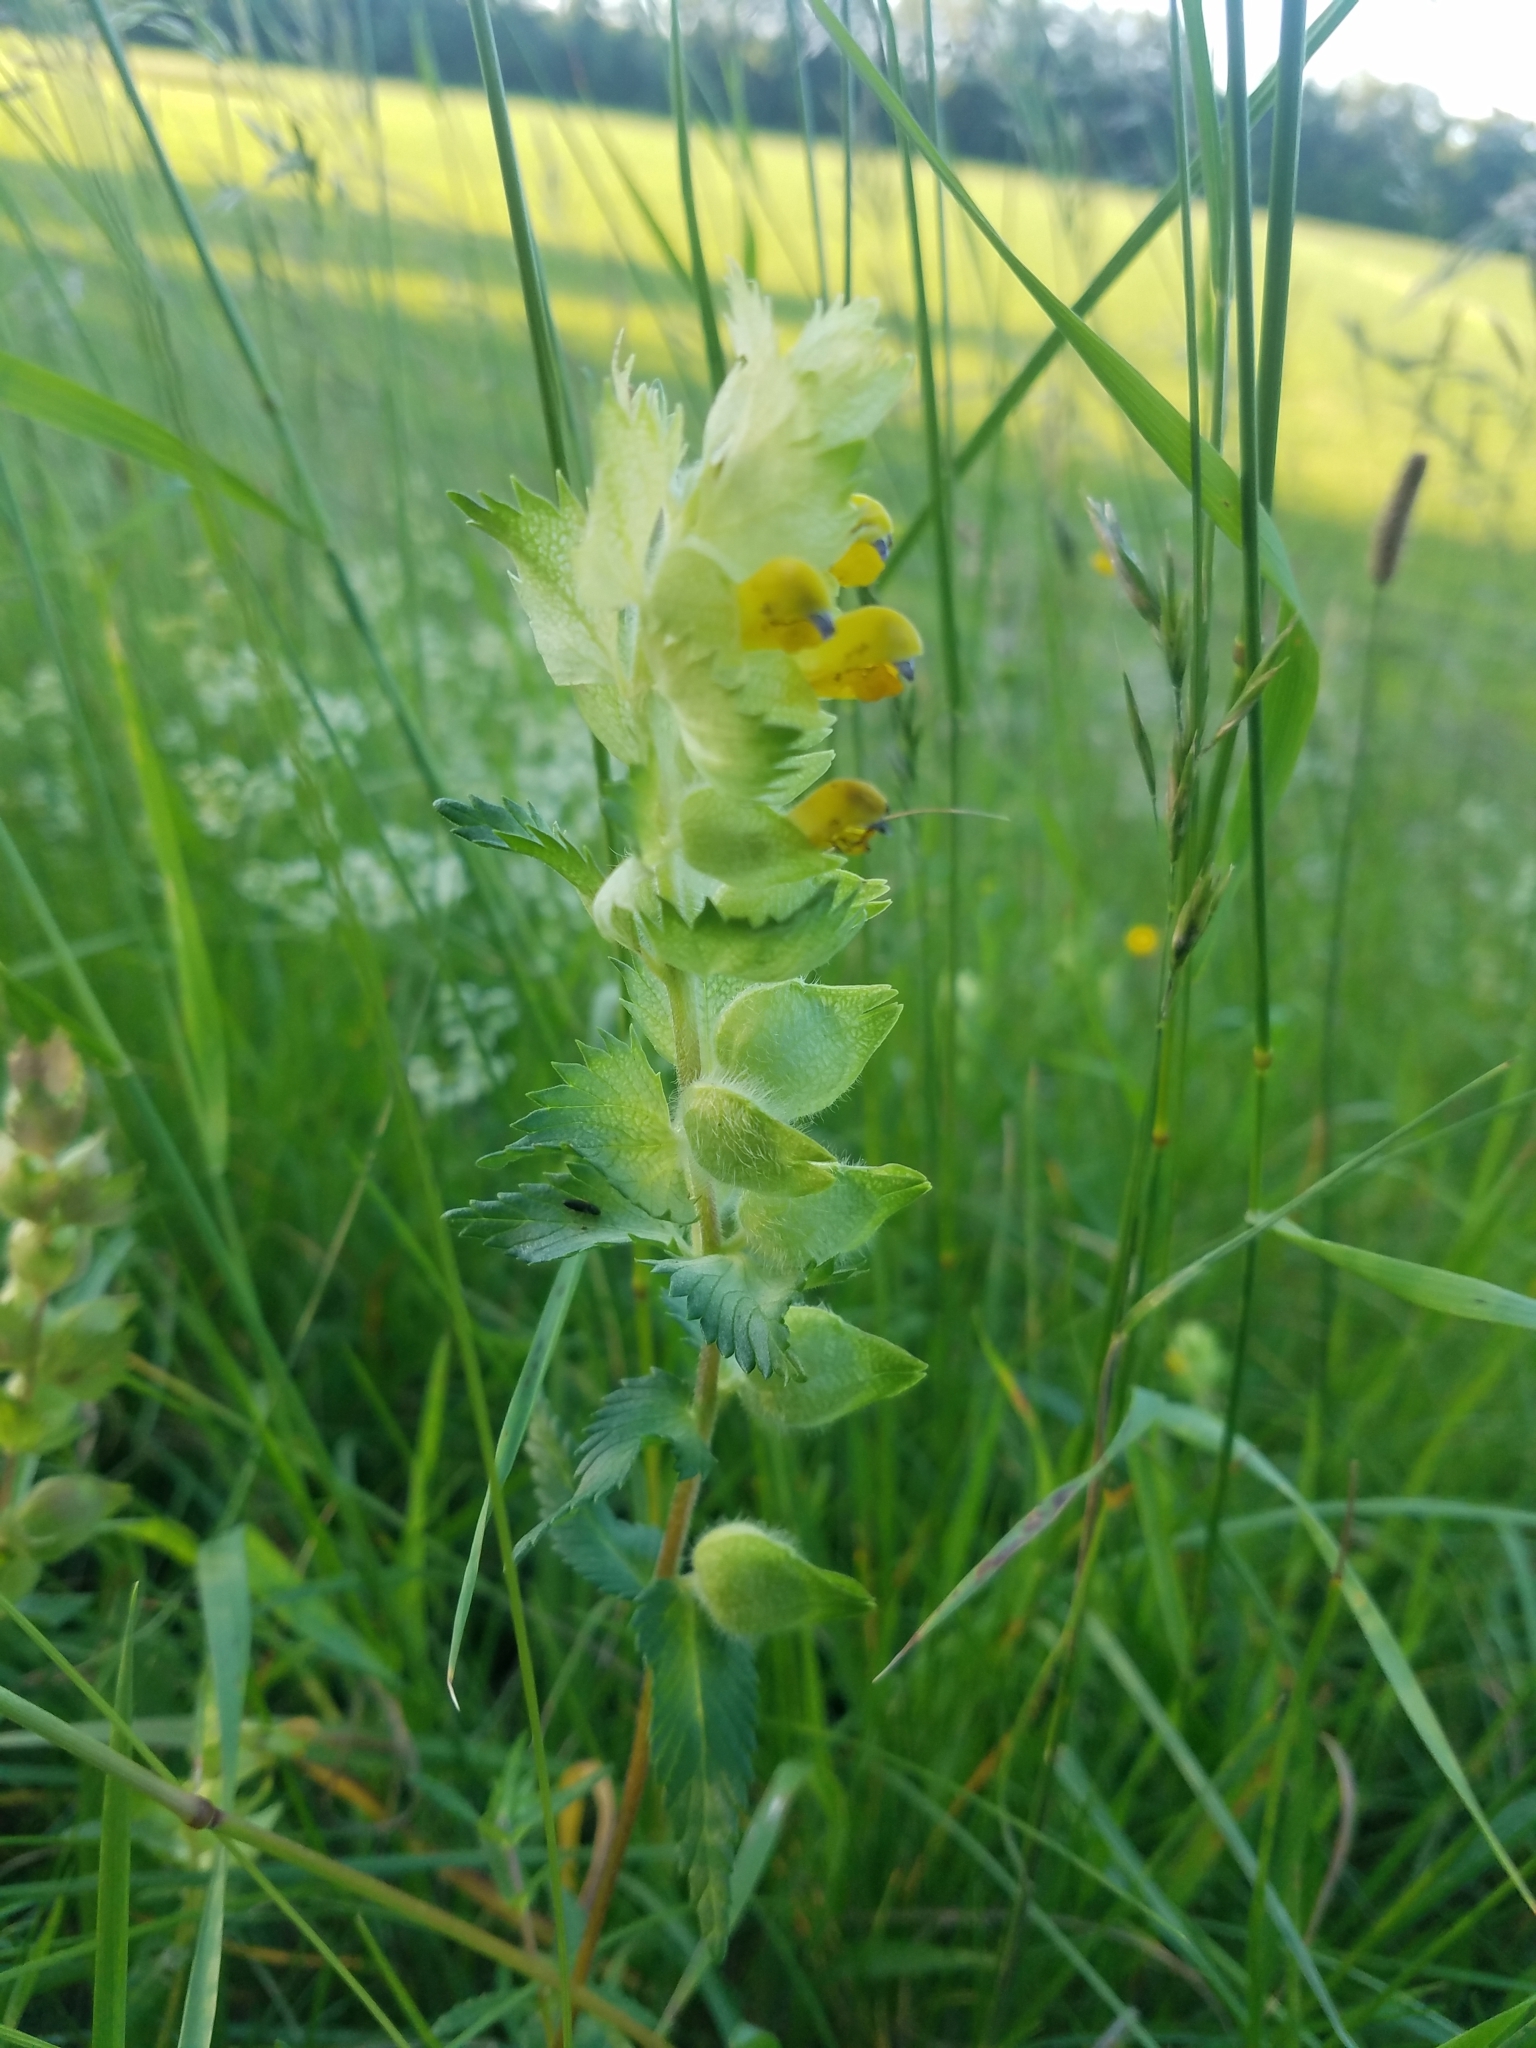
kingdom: Plantae
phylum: Tracheophyta
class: Magnoliopsida
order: Lamiales
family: Orobanchaceae
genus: Rhinanthus
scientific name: Rhinanthus alectorolophus
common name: Greater yellow-rattle
